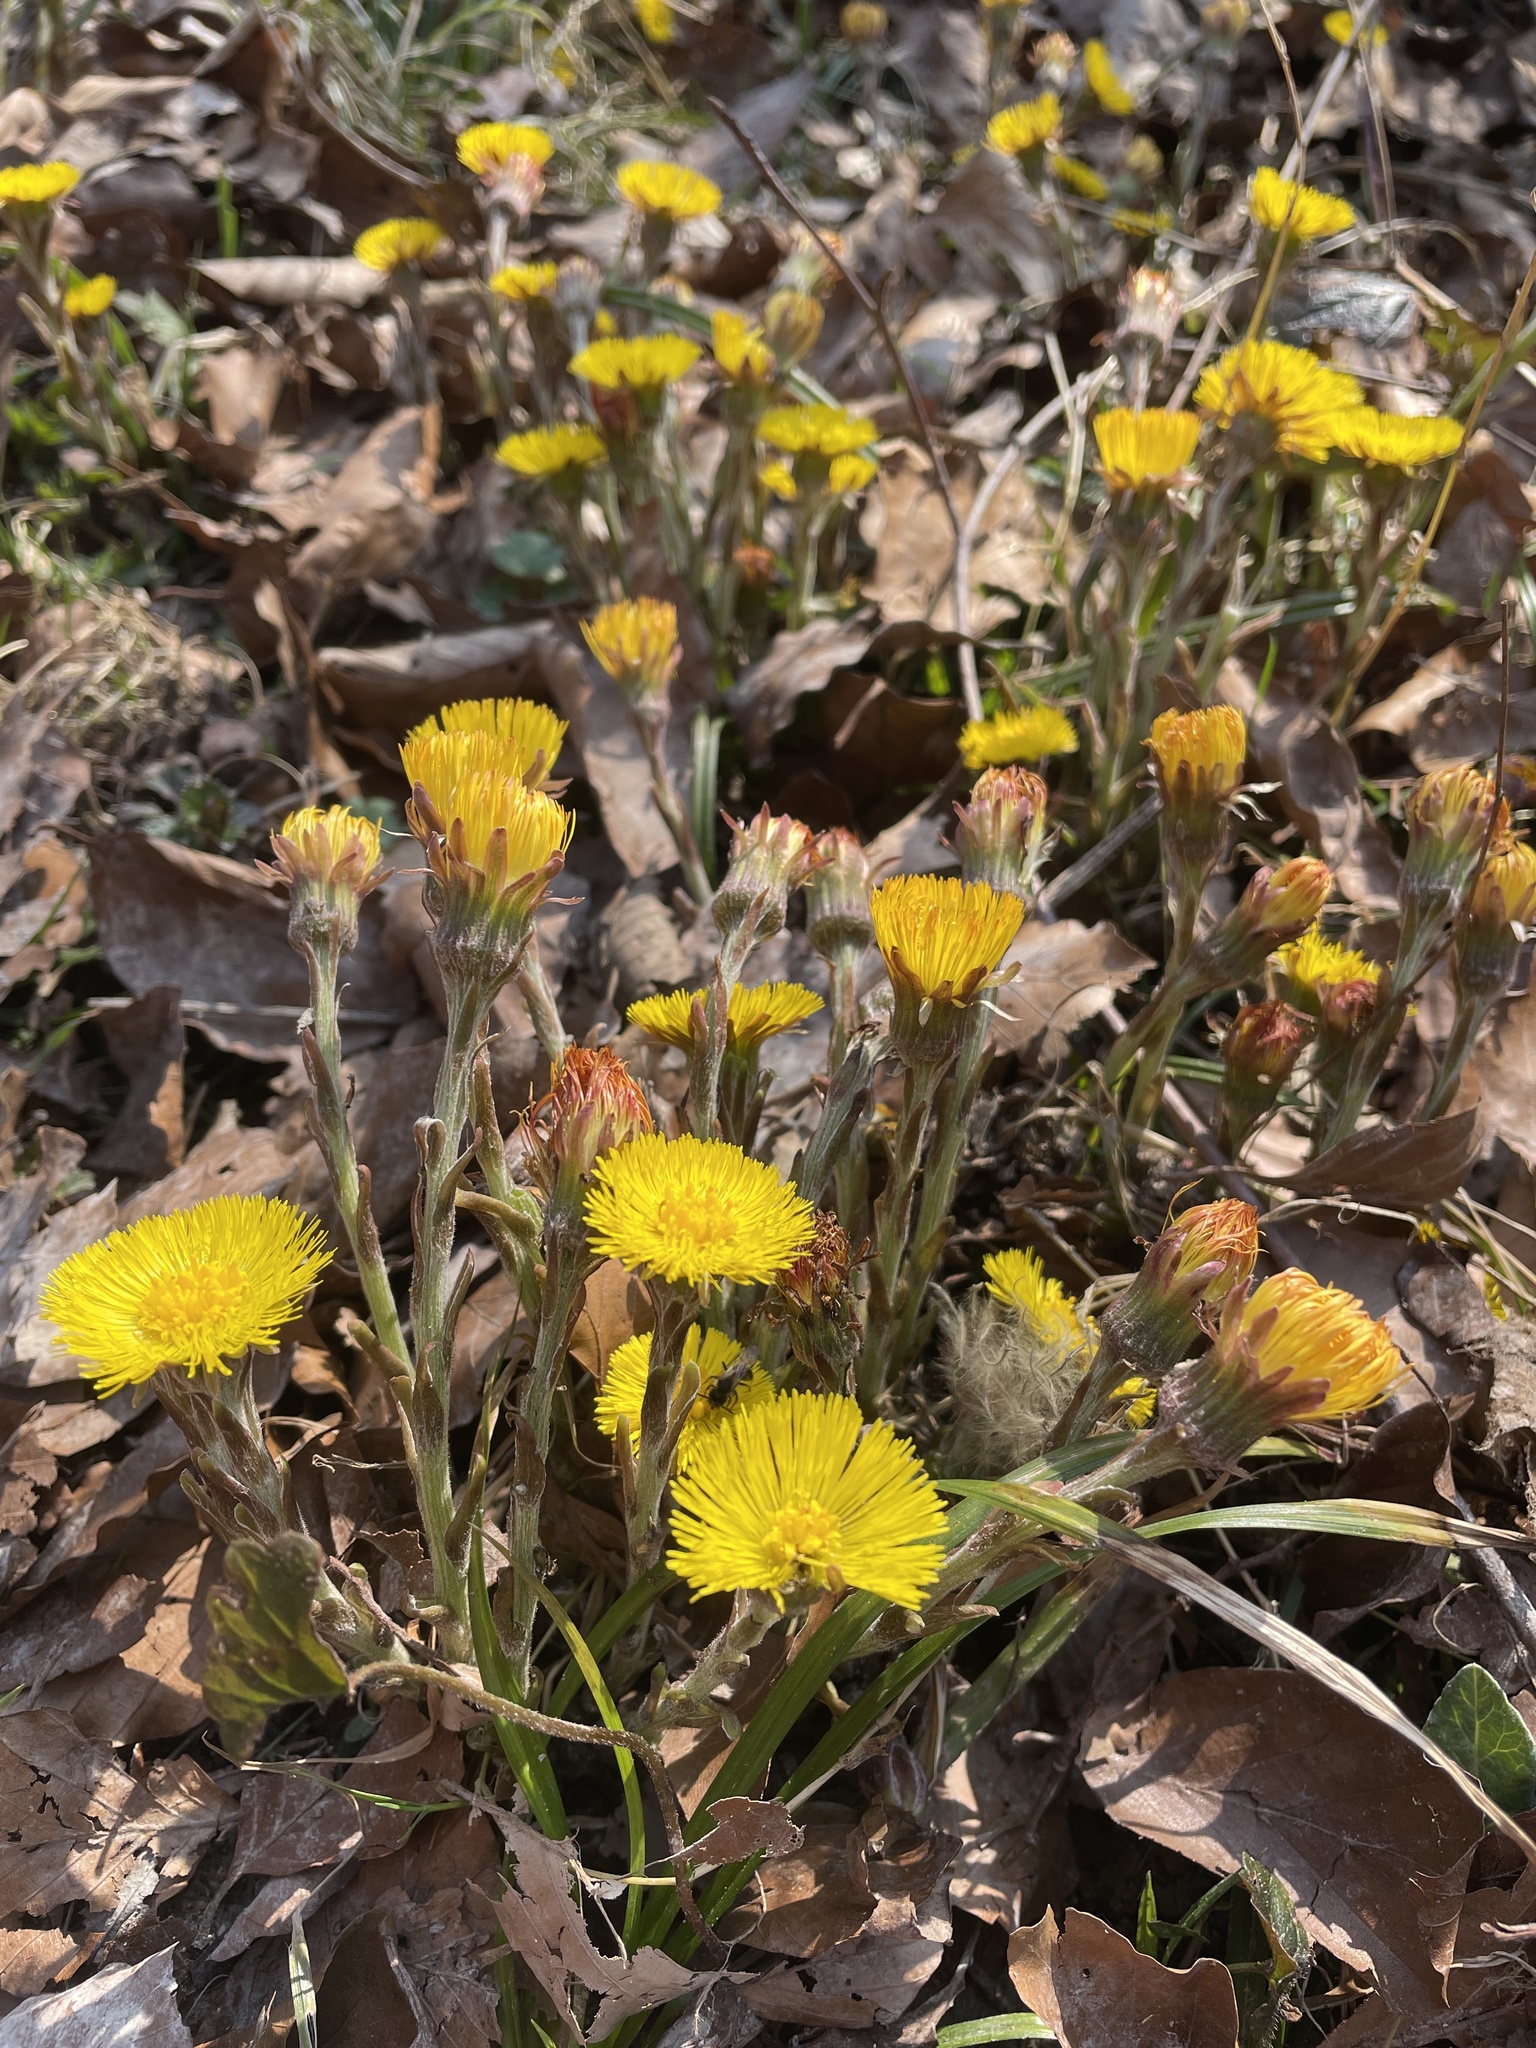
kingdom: Plantae
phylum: Tracheophyta
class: Magnoliopsida
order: Asterales
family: Asteraceae
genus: Tussilago
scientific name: Tussilago farfara
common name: Coltsfoot
